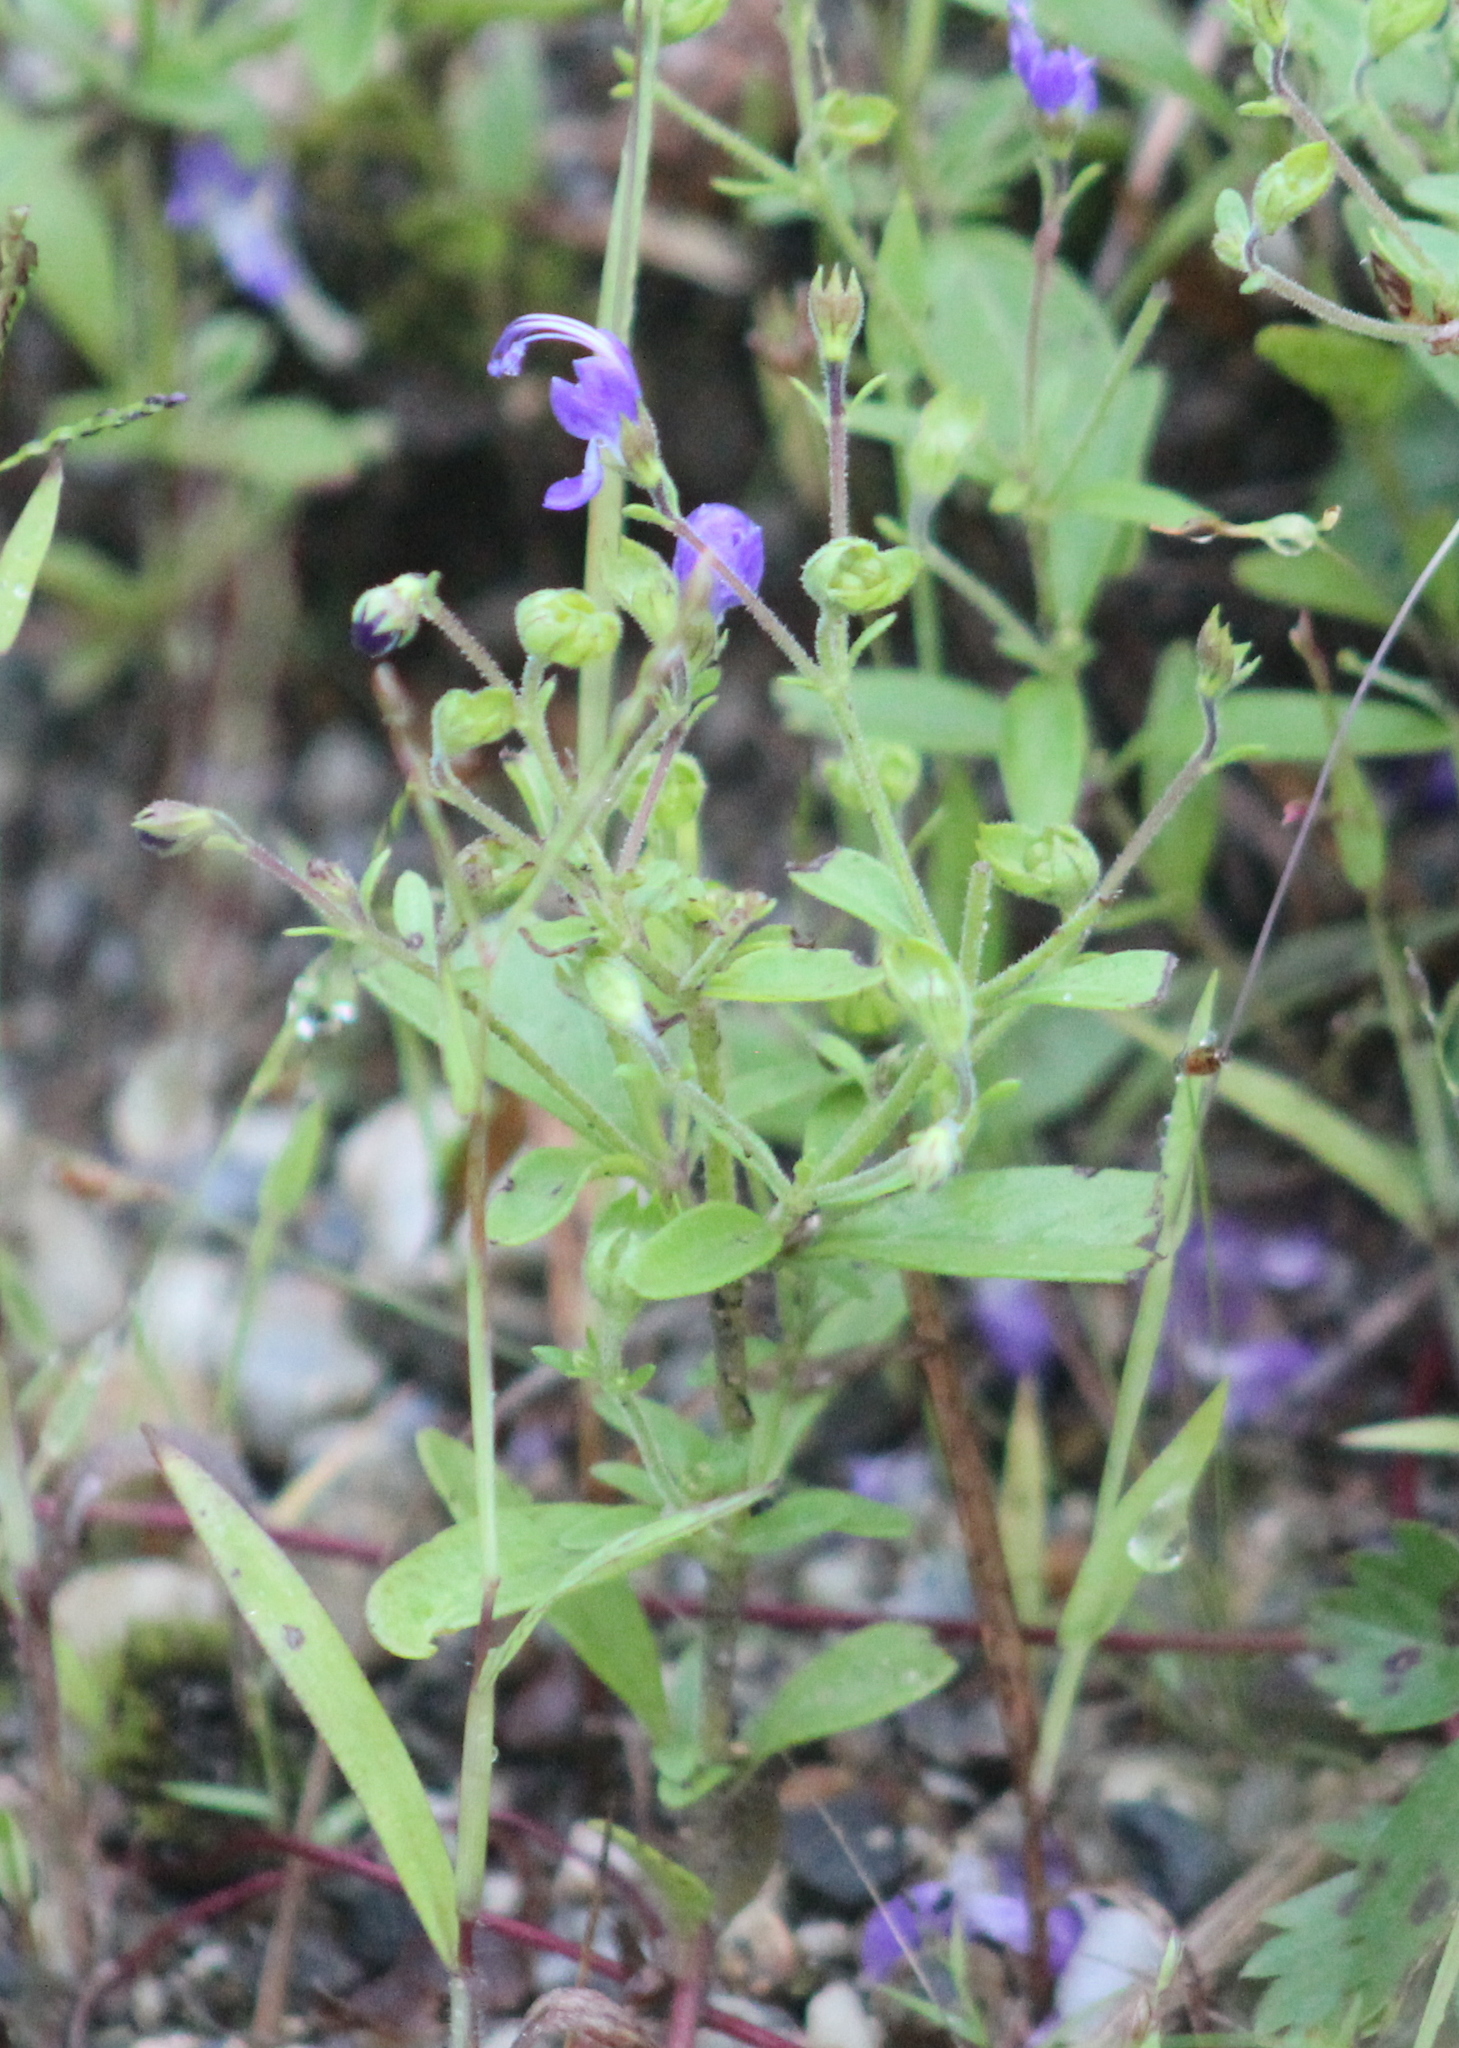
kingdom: Plantae
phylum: Tracheophyta
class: Magnoliopsida
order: Lamiales
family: Lamiaceae
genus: Trichostema
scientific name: Trichostema dichotomum
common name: Bastard pennyroyal
